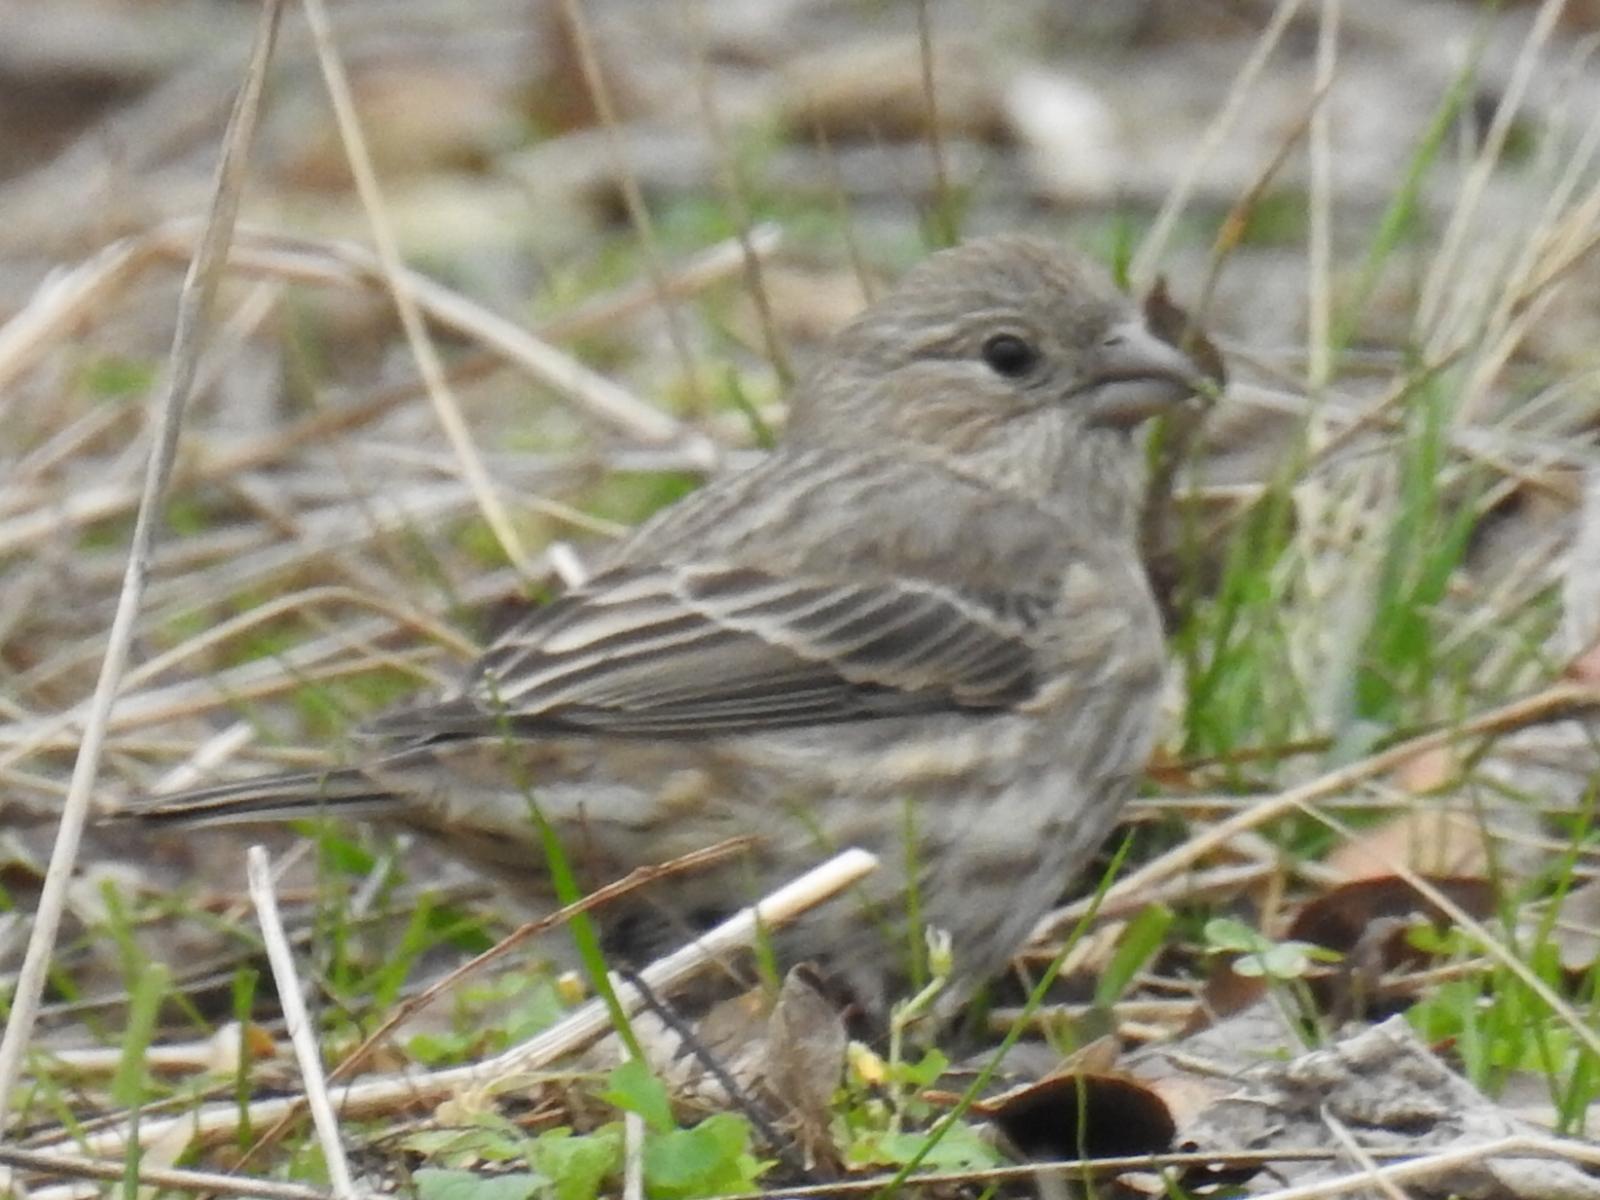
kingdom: Animalia
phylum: Chordata
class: Aves
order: Passeriformes
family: Fringillidae
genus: Haemorhous
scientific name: Haemorhous mexicanus
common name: House finch
